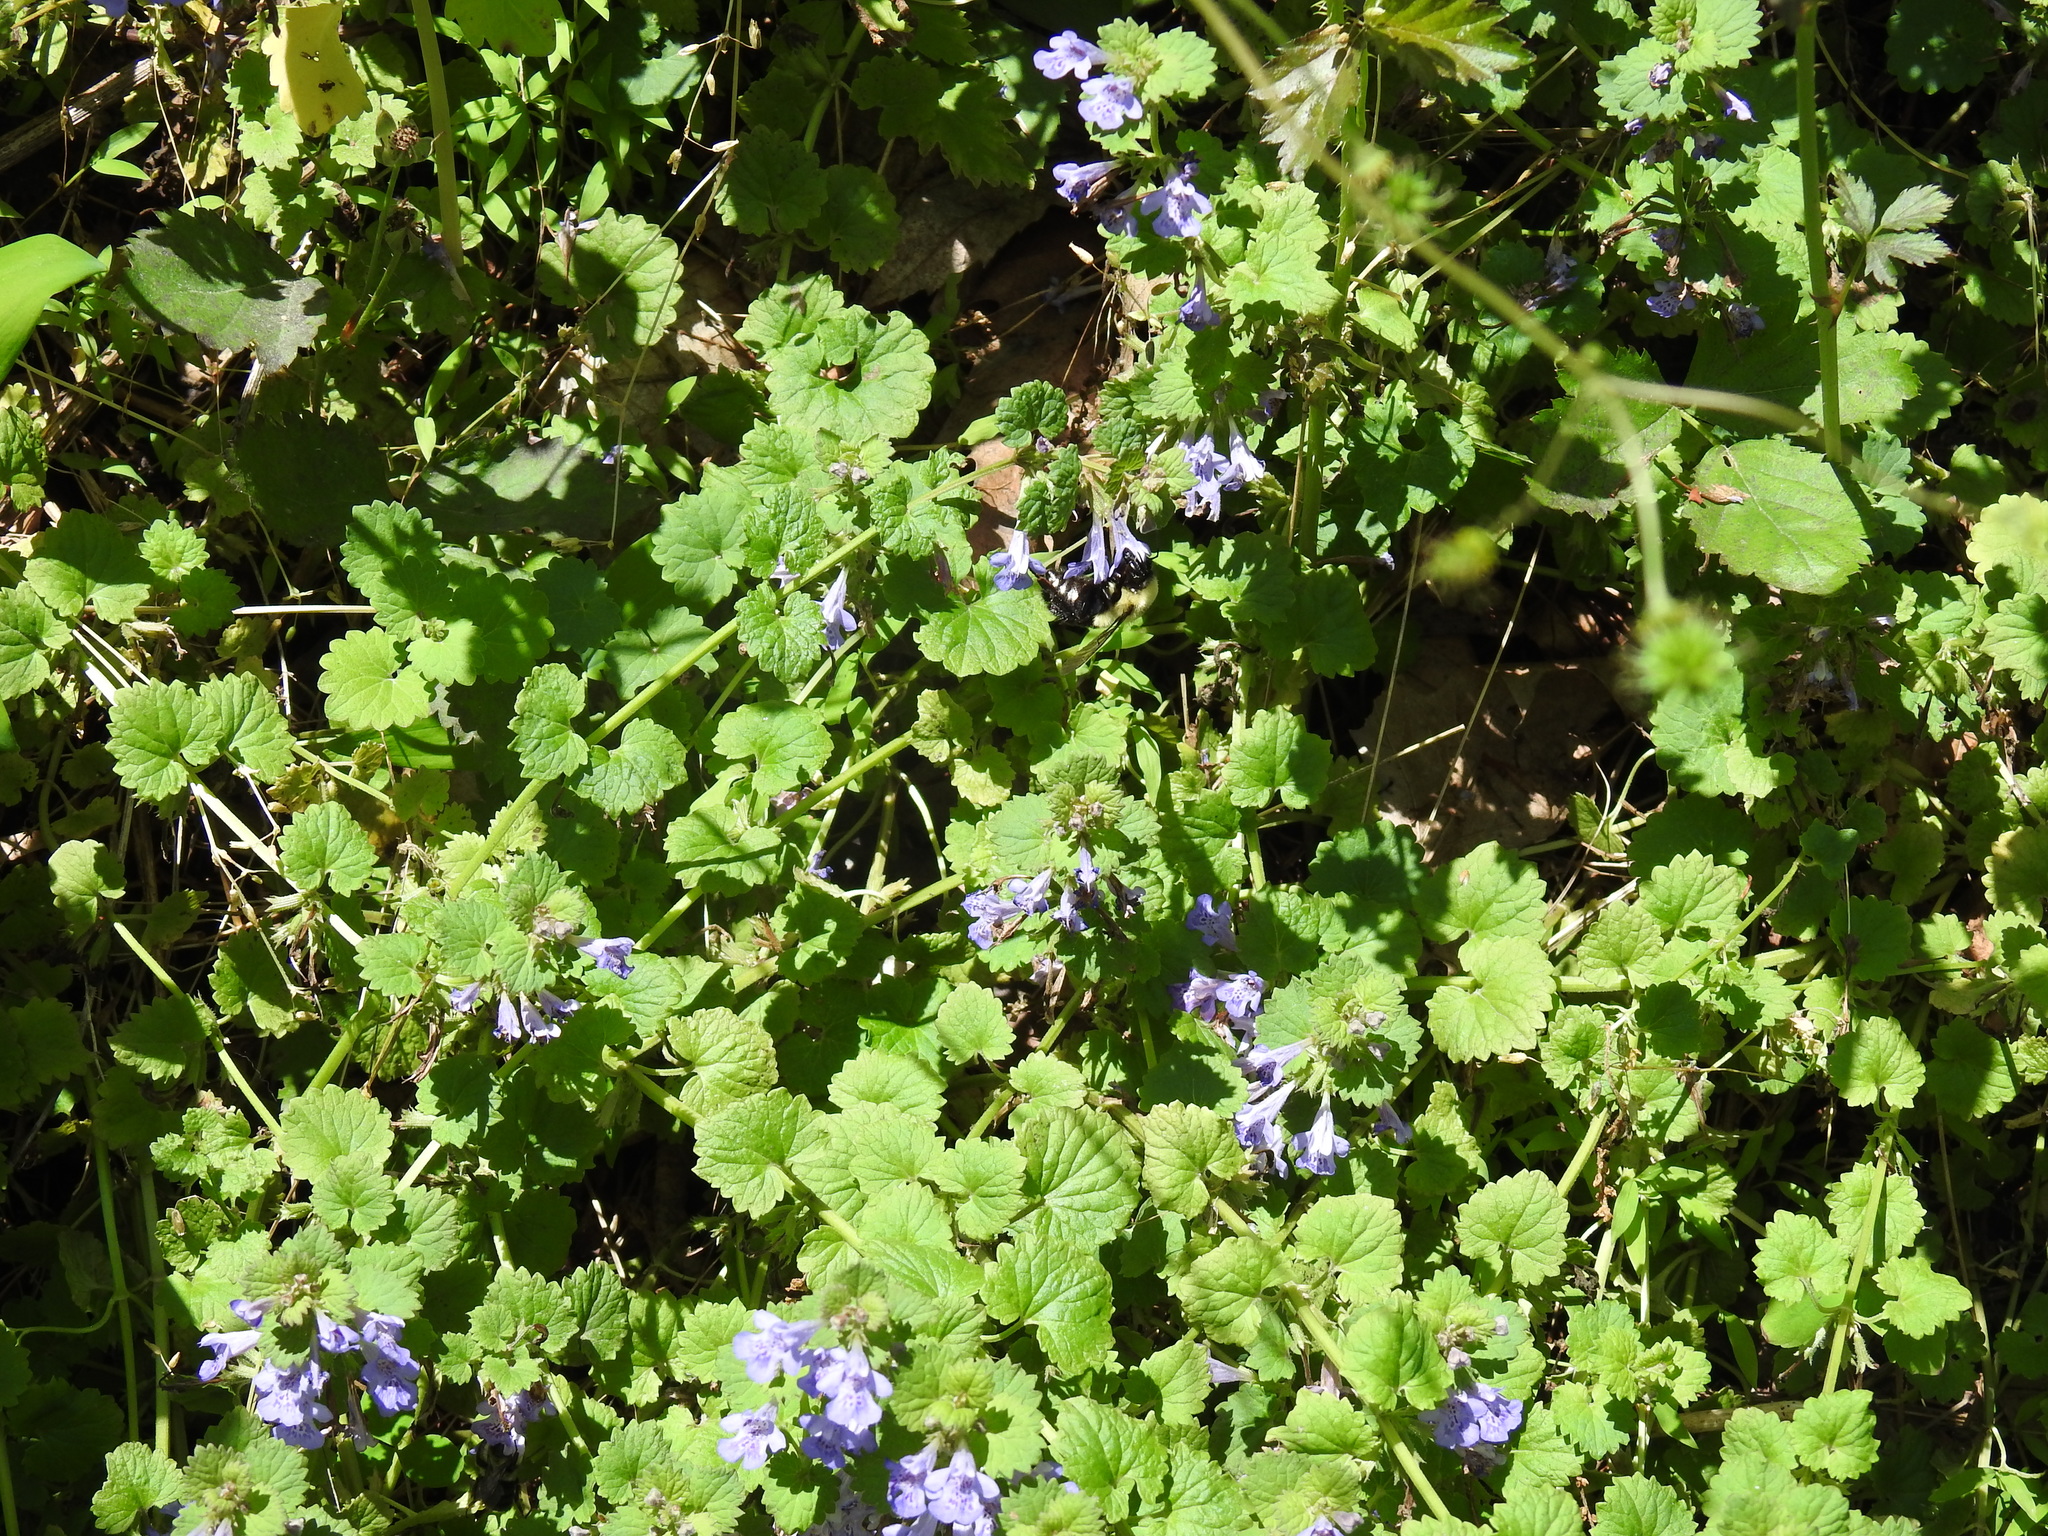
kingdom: Plantae
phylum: Tracheophyta
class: Magnoliopsida
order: Lamiales
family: Lamiaceae
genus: Glechoma
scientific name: Glechoma hederacea
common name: Ground ivy
